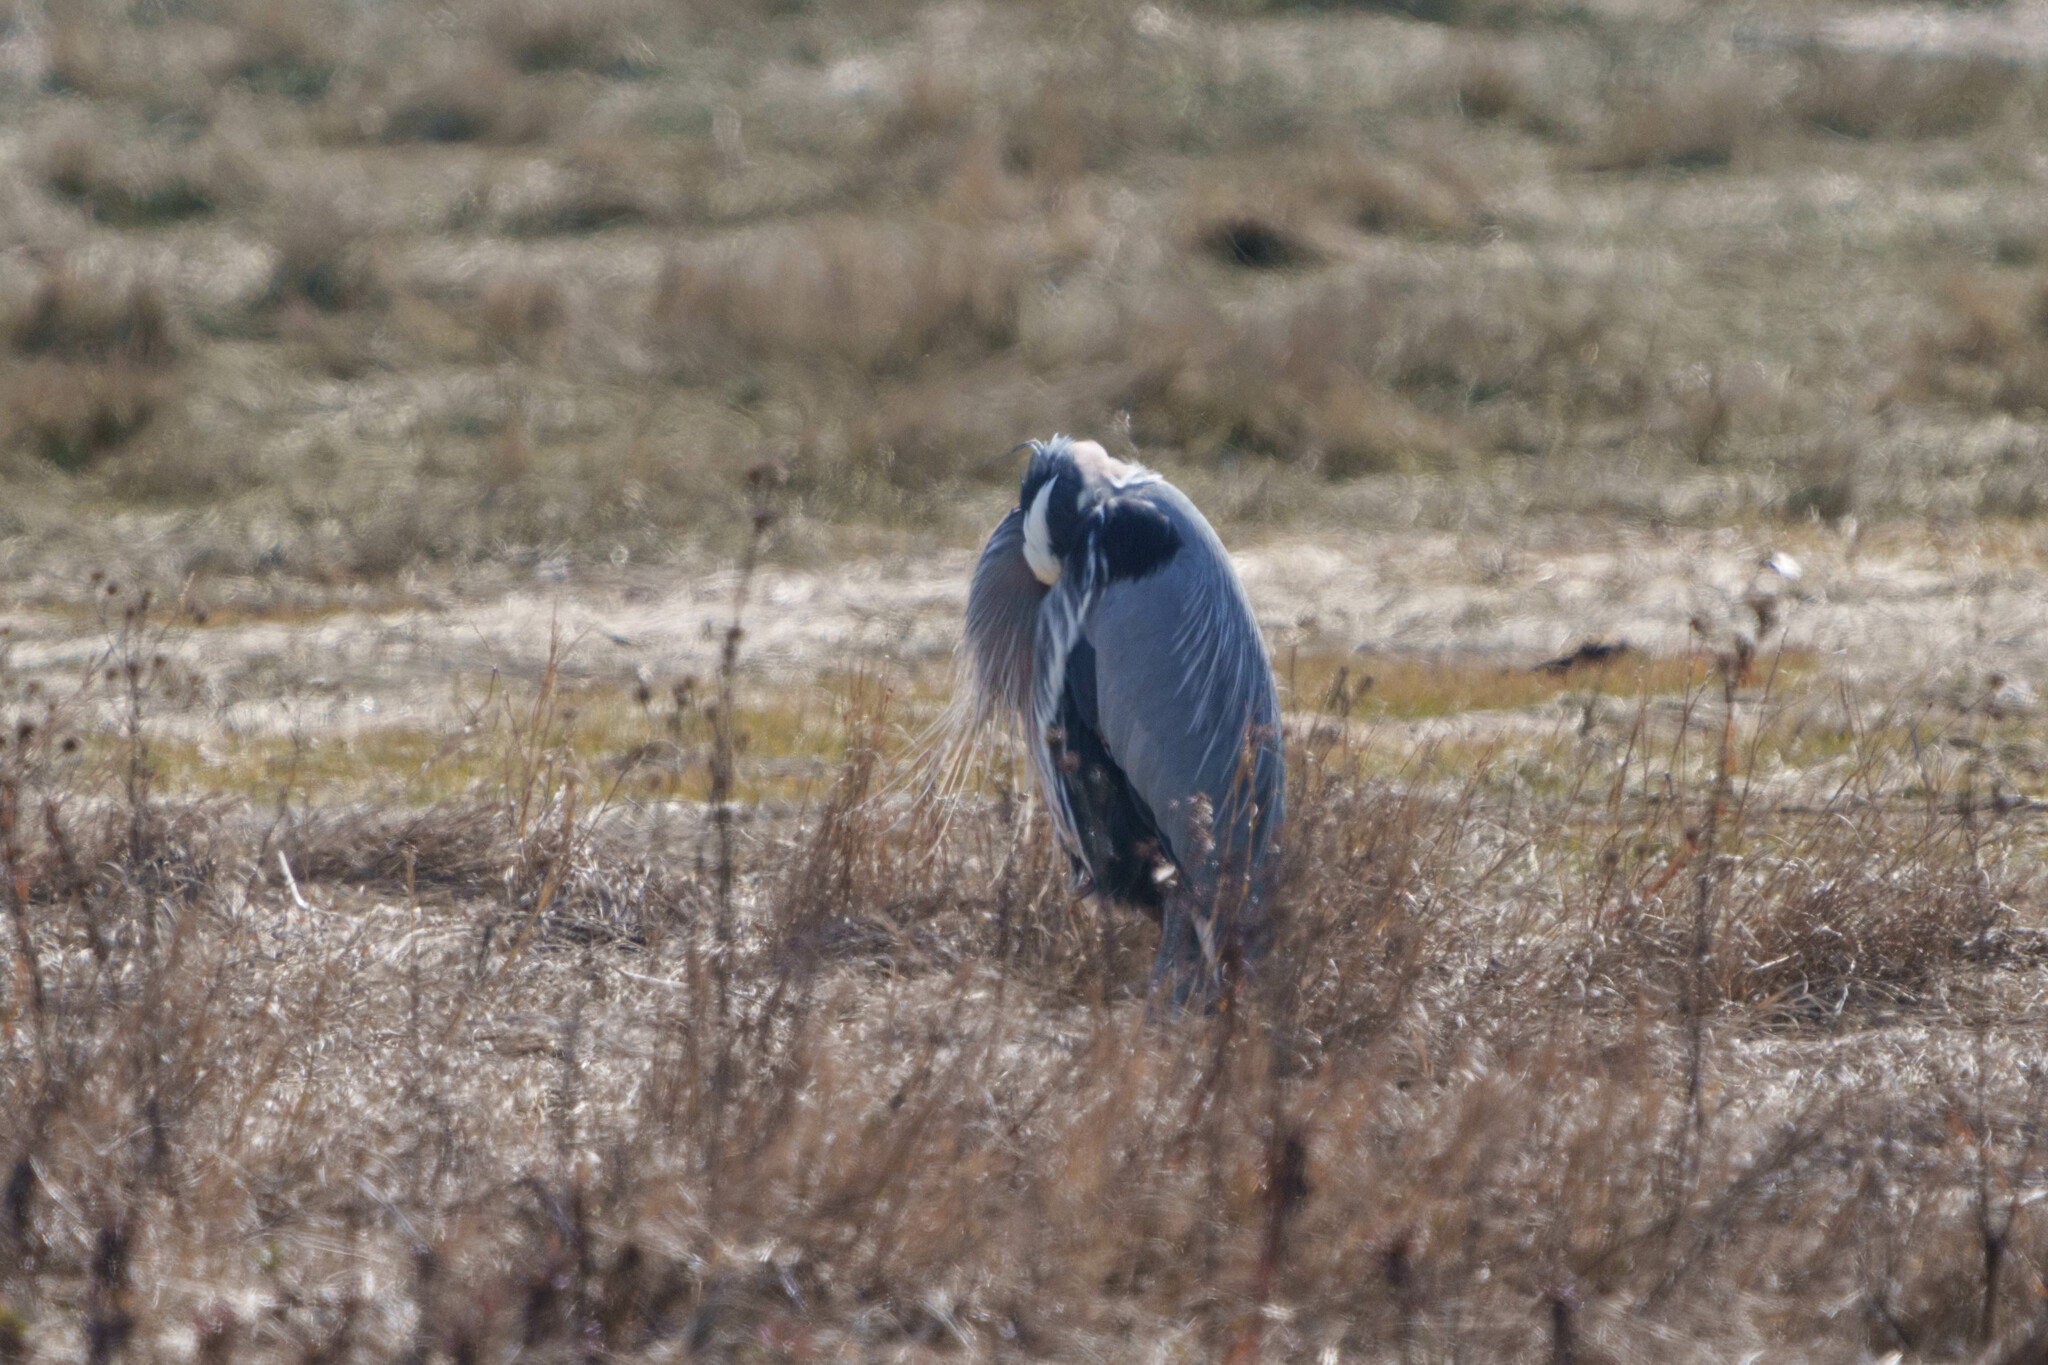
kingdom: Animalia
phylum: Chordata
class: Aves
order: Pelecaniformes
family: Ardeidae
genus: Ardea
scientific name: Ardea herodias
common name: Great blue heron
